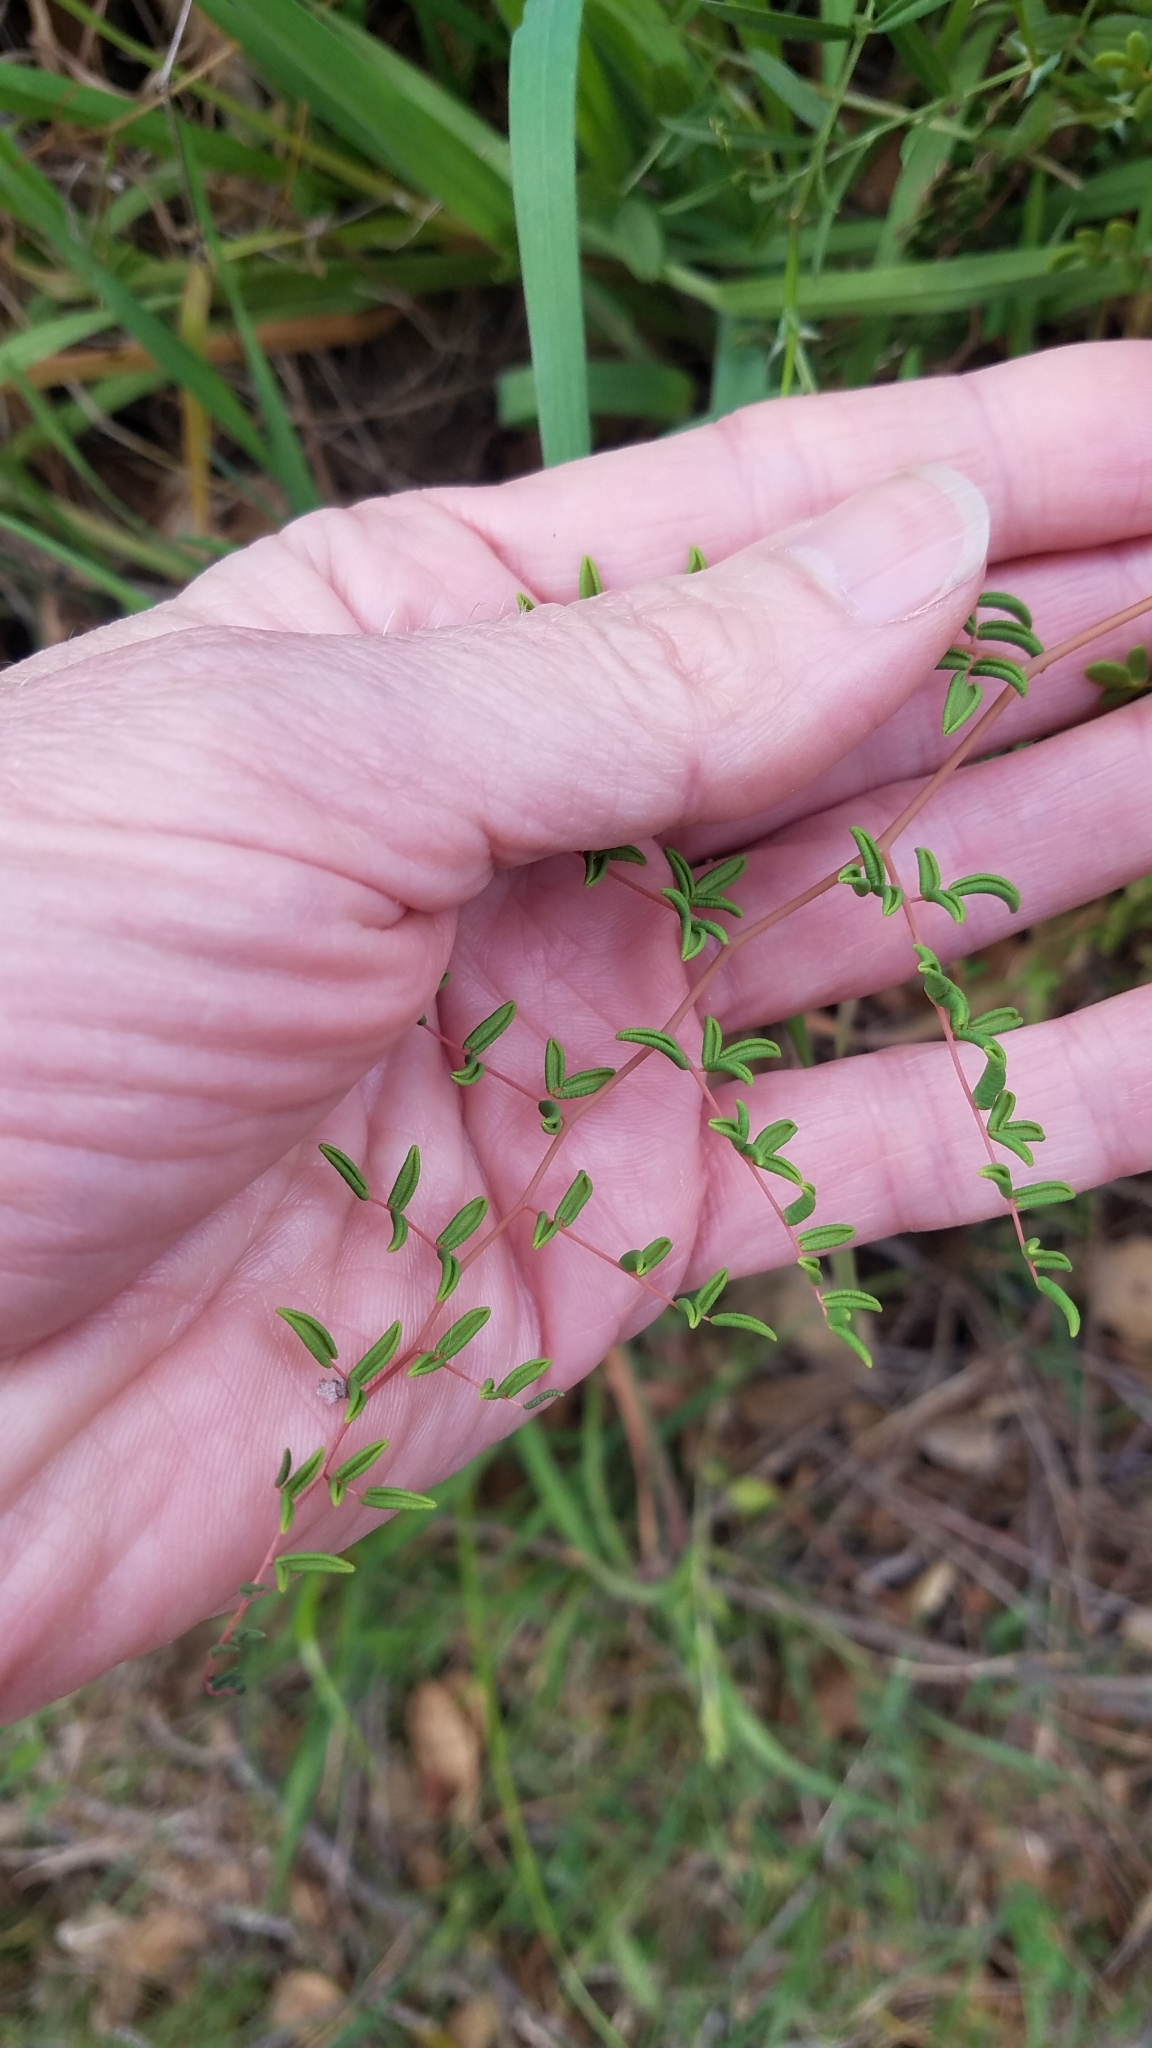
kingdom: Plantae
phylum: Tracheophyta
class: Polypodiopsida
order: Polypodiales
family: Pteridaceae
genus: Pellaea
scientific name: Pellaea andromedifolia
